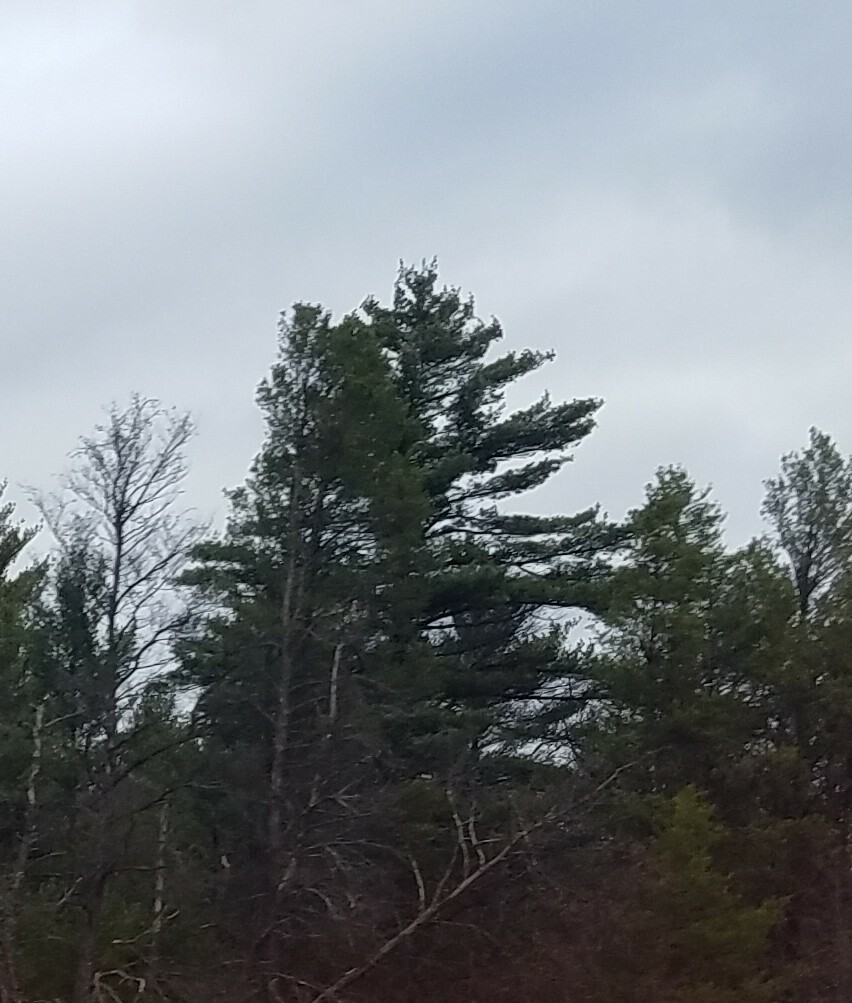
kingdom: Plantae
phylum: Tracheophyta
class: Pinopsida
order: Pinales
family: Pinaceae
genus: Pinus
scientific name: Pinus strobus
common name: Weymouth pine
